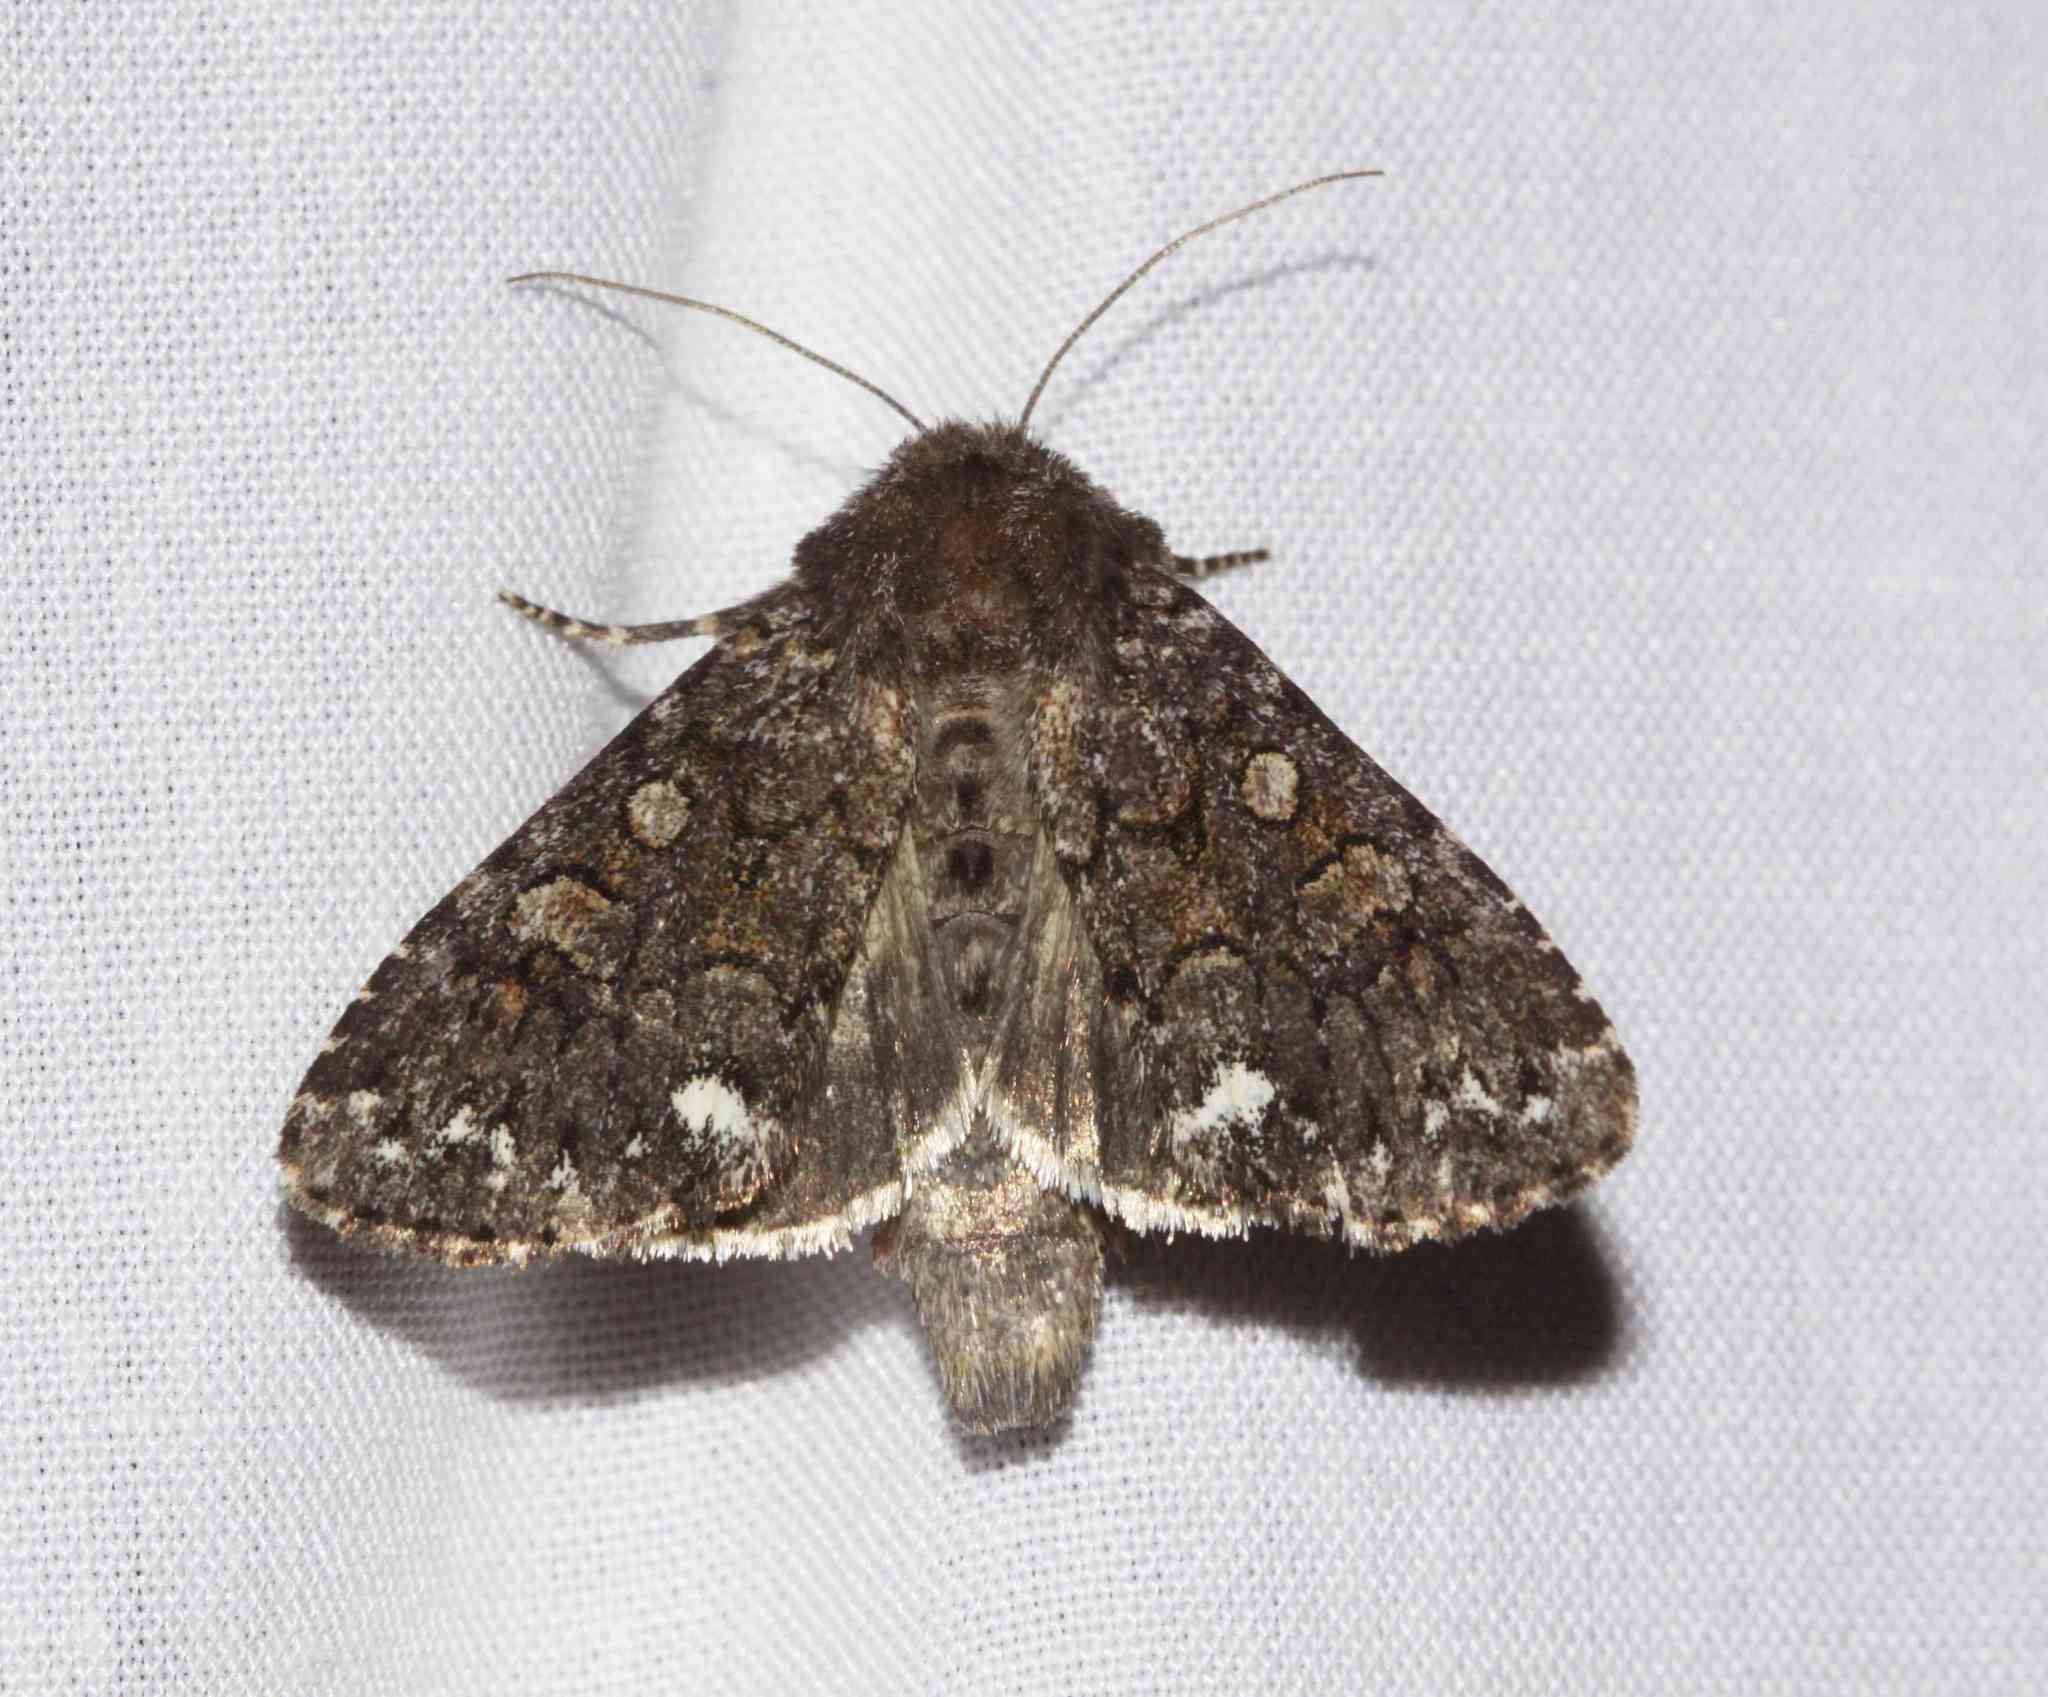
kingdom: Animalia
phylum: Arthropoda
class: Insecta
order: Lepidoptera
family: Noctuidae
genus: Melanchra
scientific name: Melanchra pulverulenta
